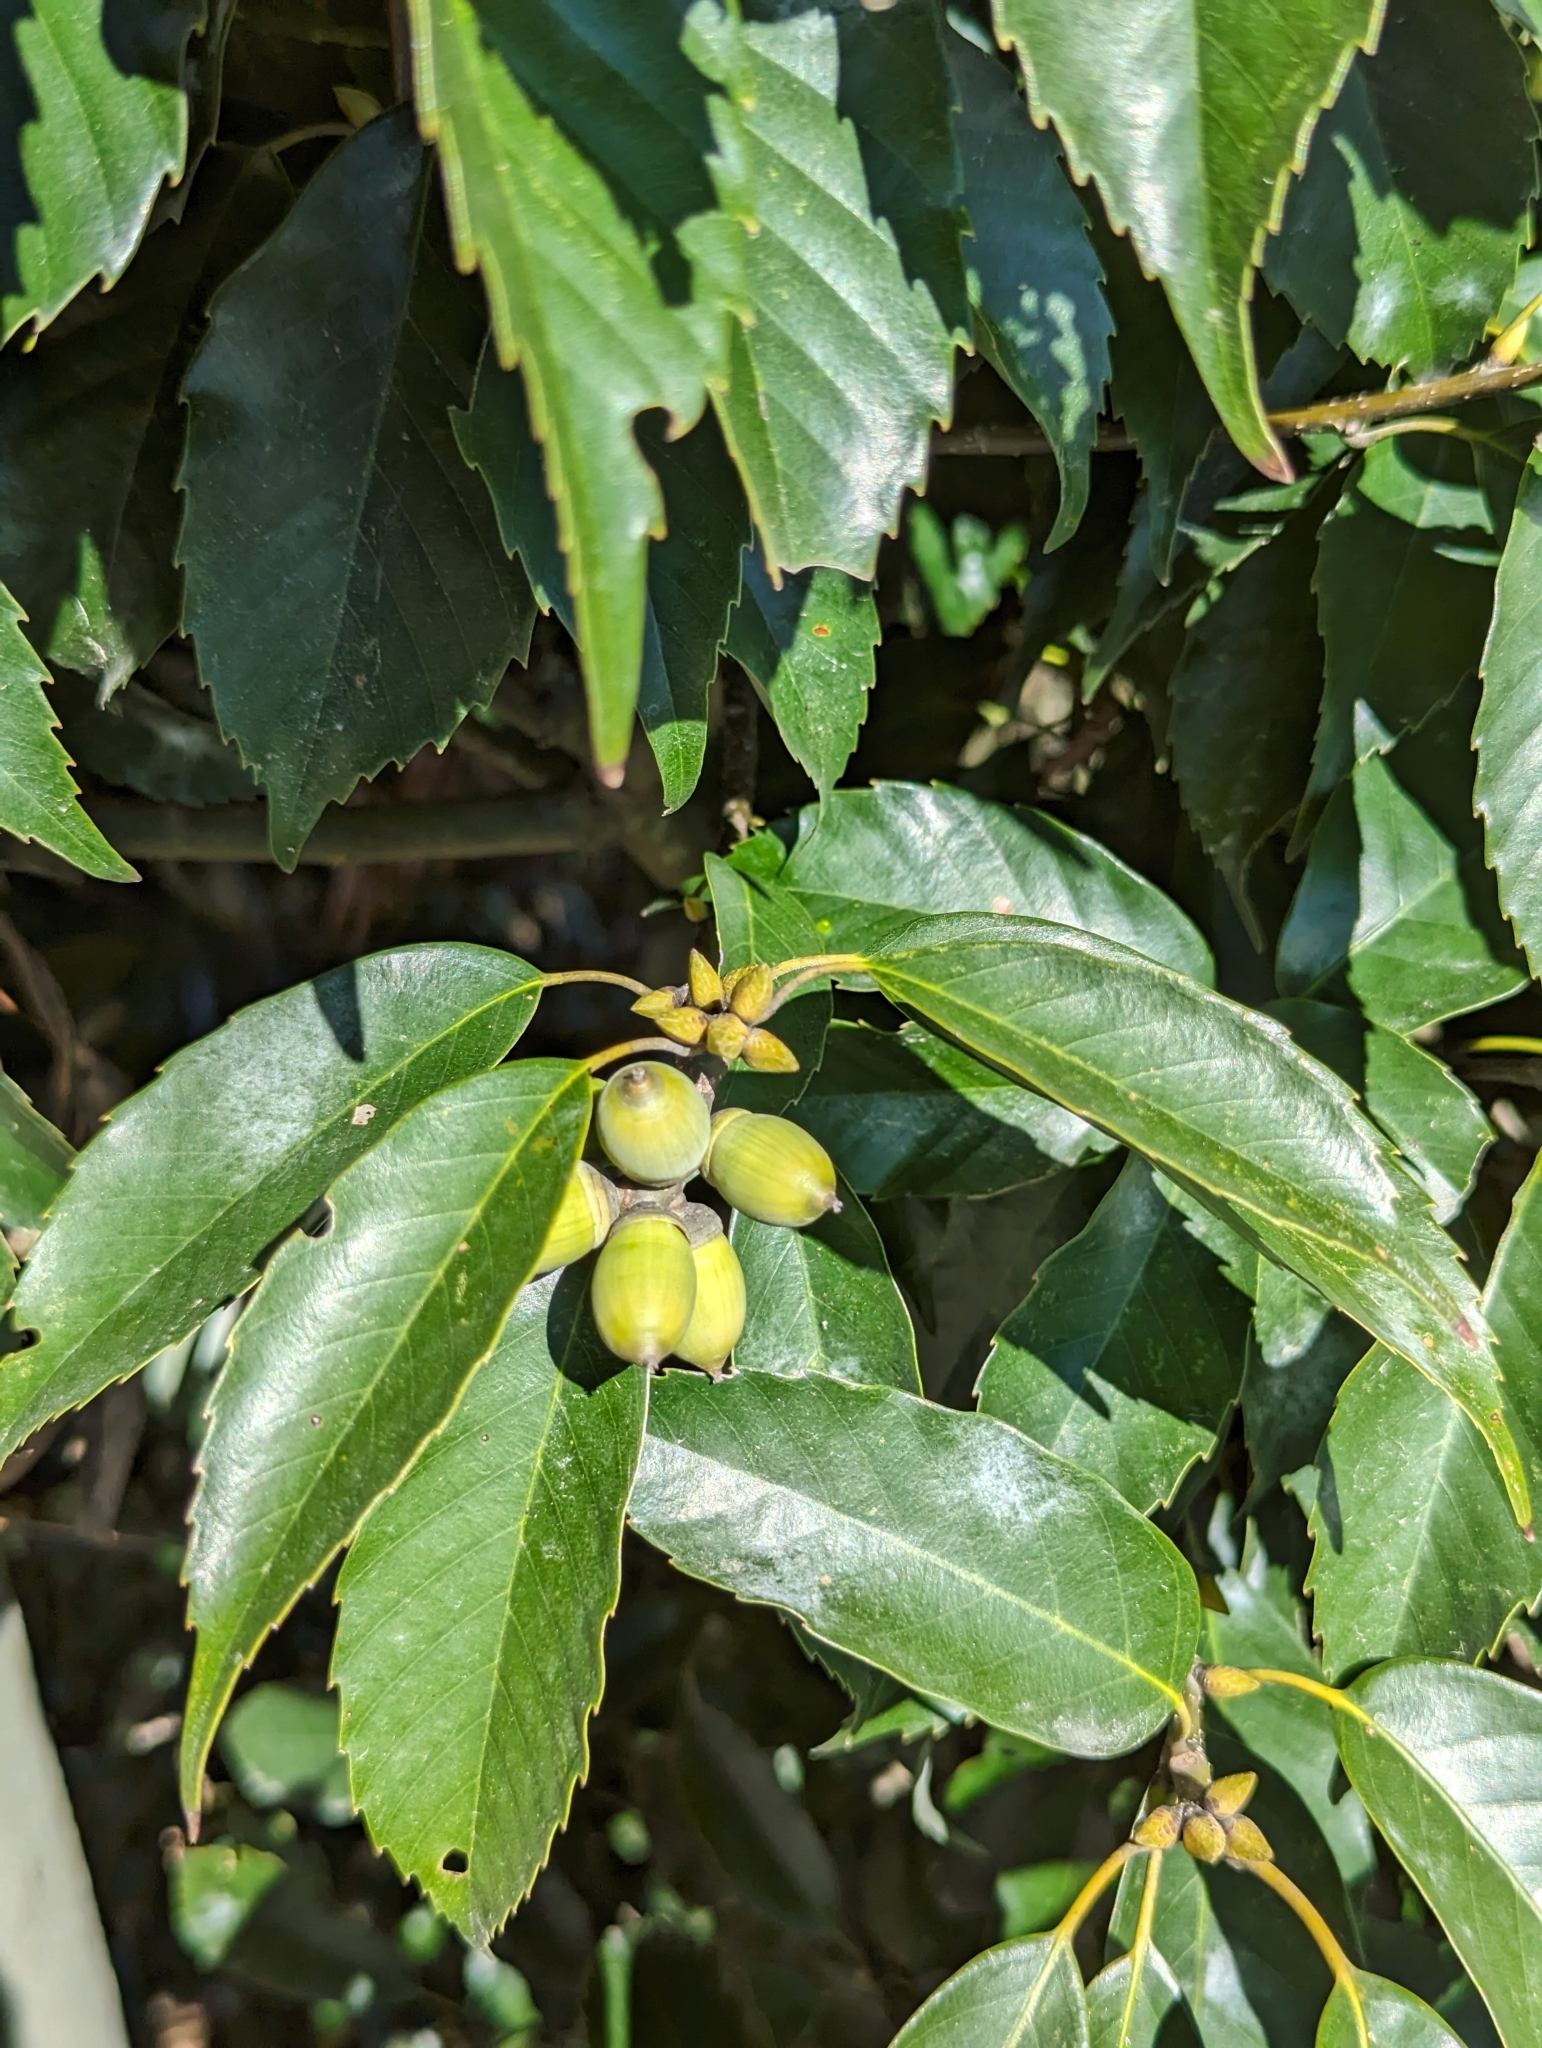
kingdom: Plantae
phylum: Tracheophyta
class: Magnoliopsida
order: Fagales
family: Fagaceae
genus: Quercus
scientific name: Quercus glauca
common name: Ring-cup oak
